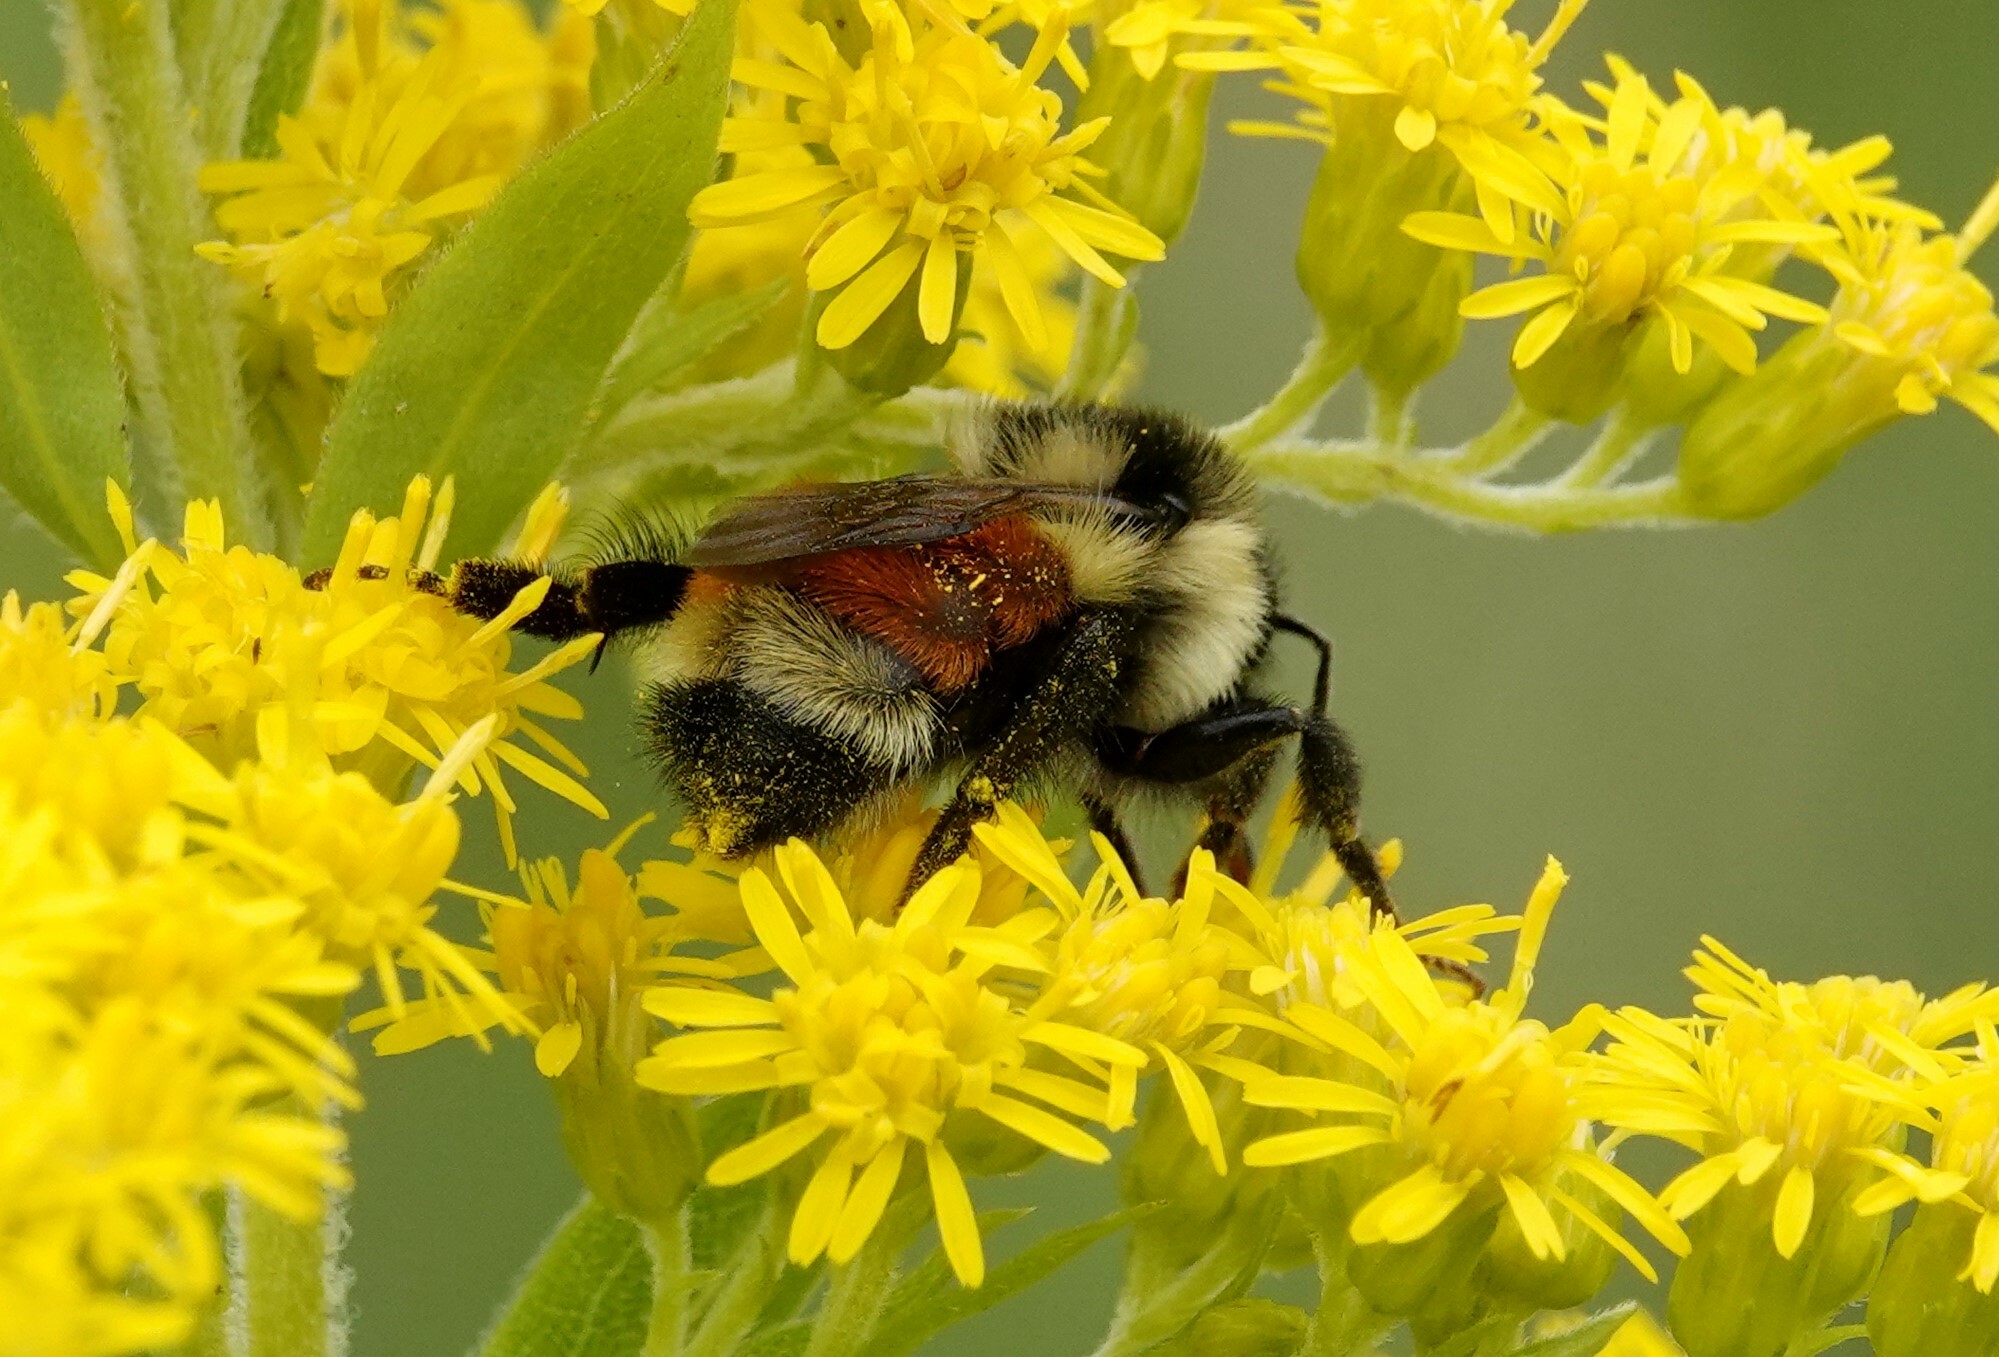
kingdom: Animalia
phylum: Arthropoda
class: Insecta
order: Hymenoptera
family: Apidae
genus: Bombus
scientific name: Bombus ternarius
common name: Tri-colored bumble bee
